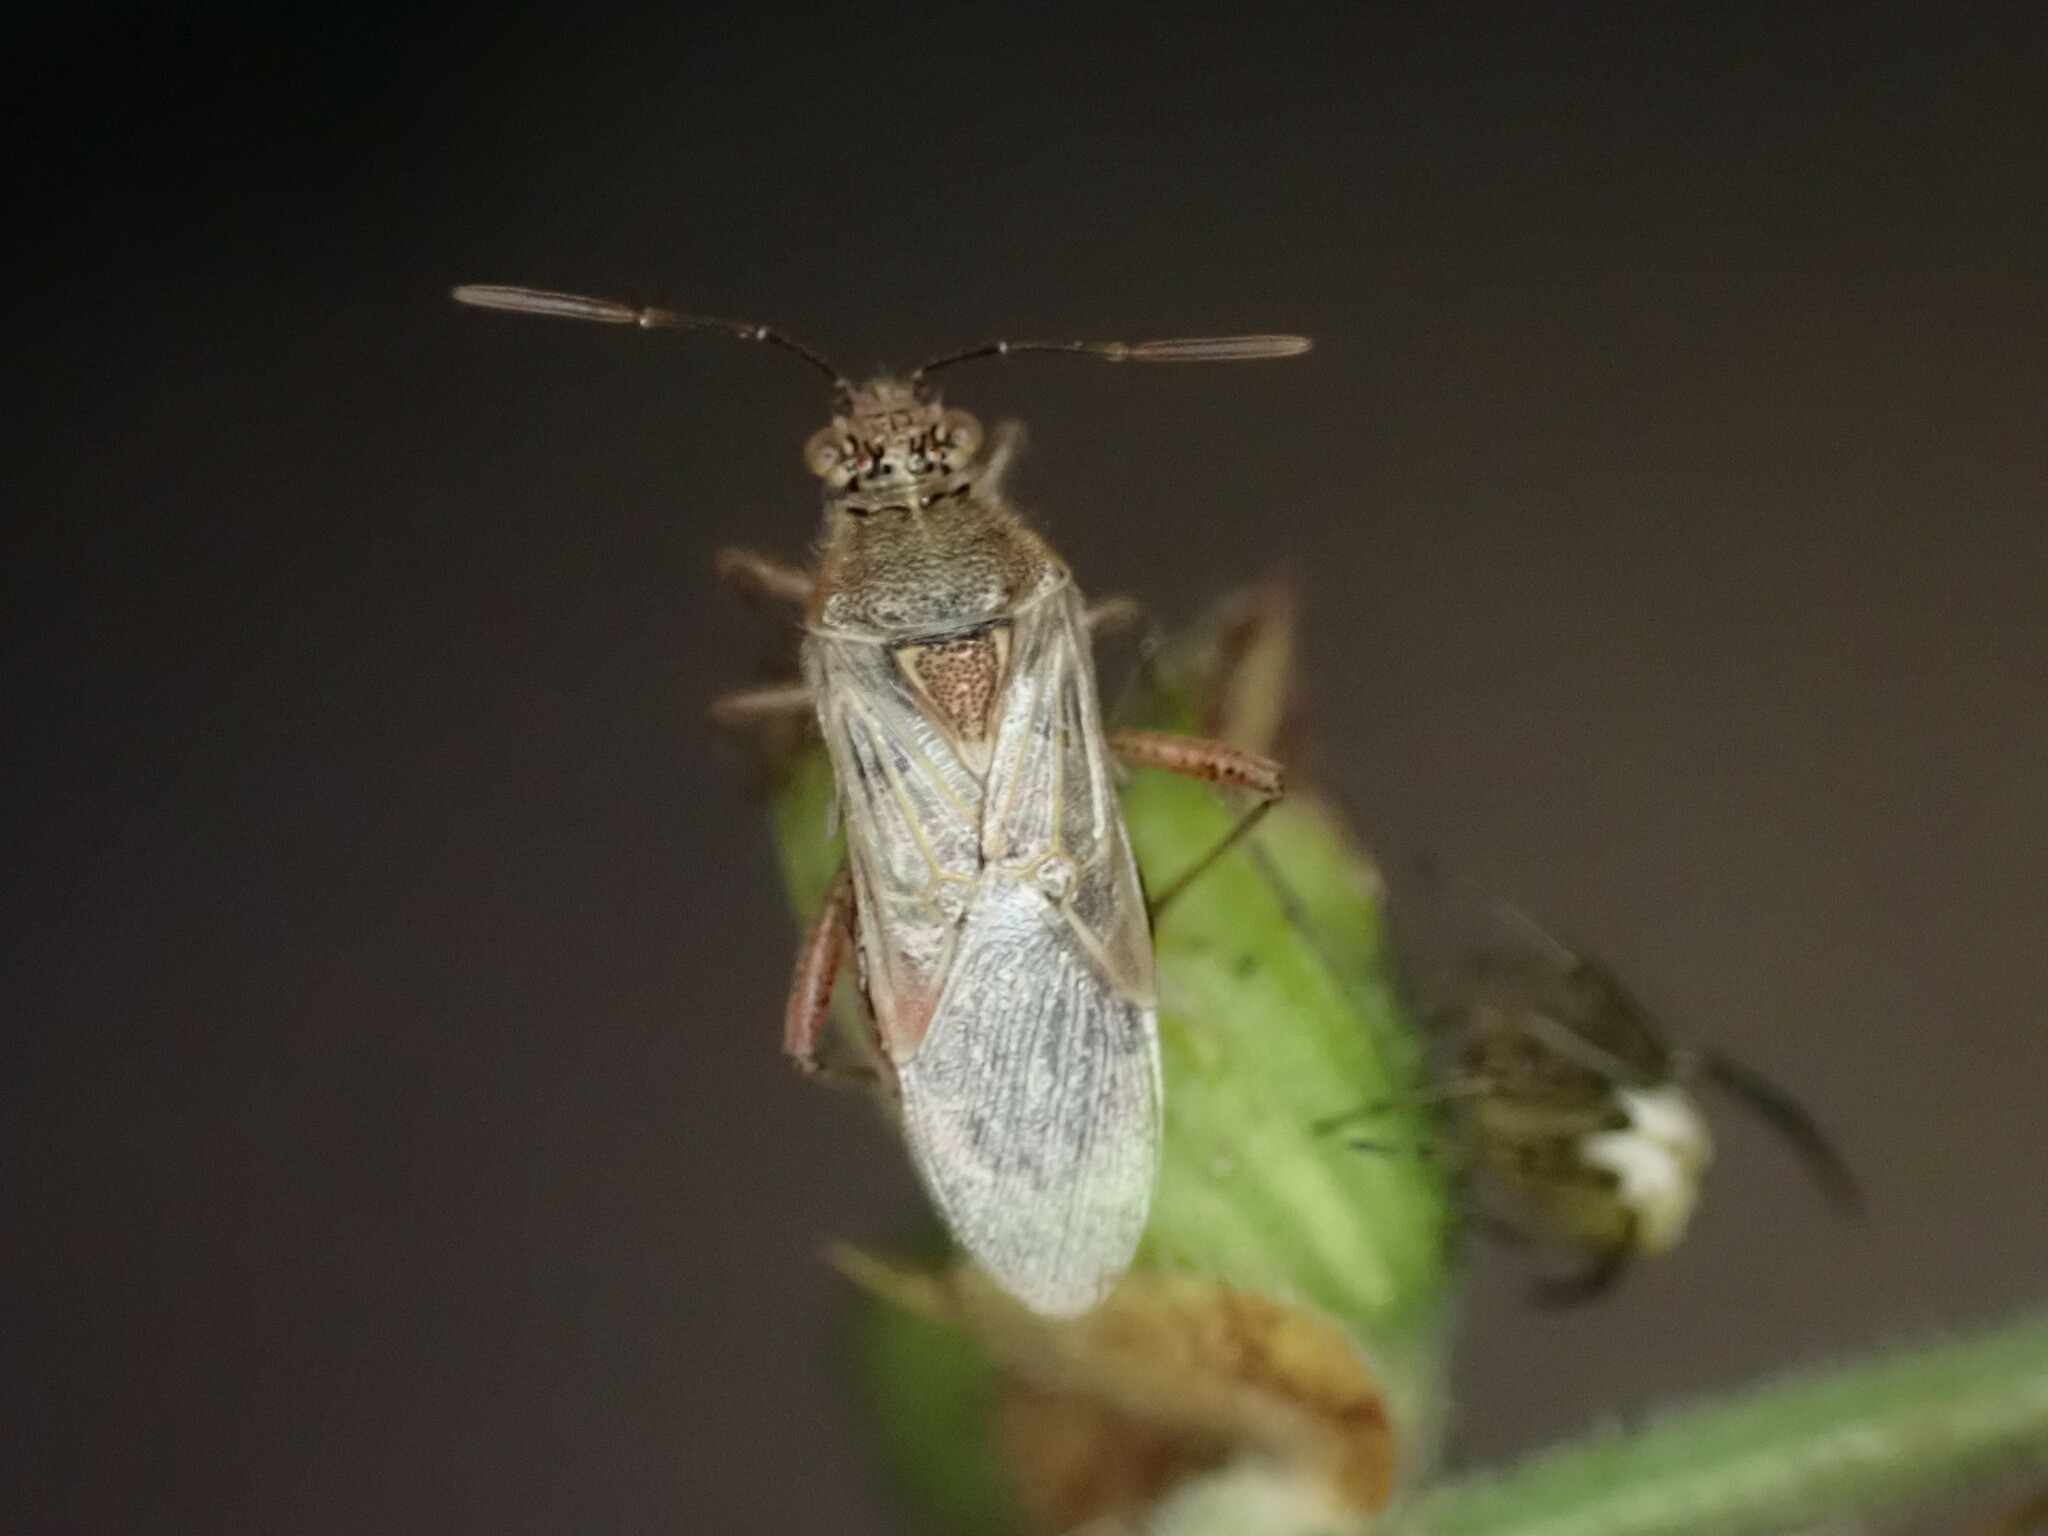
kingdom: Animalia
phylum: Arthropoda
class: Insecta
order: Hemiptera
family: Rhopalidae
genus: Liorhyssus
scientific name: Liorhyssus hyalinus
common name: Scentless plant bug
